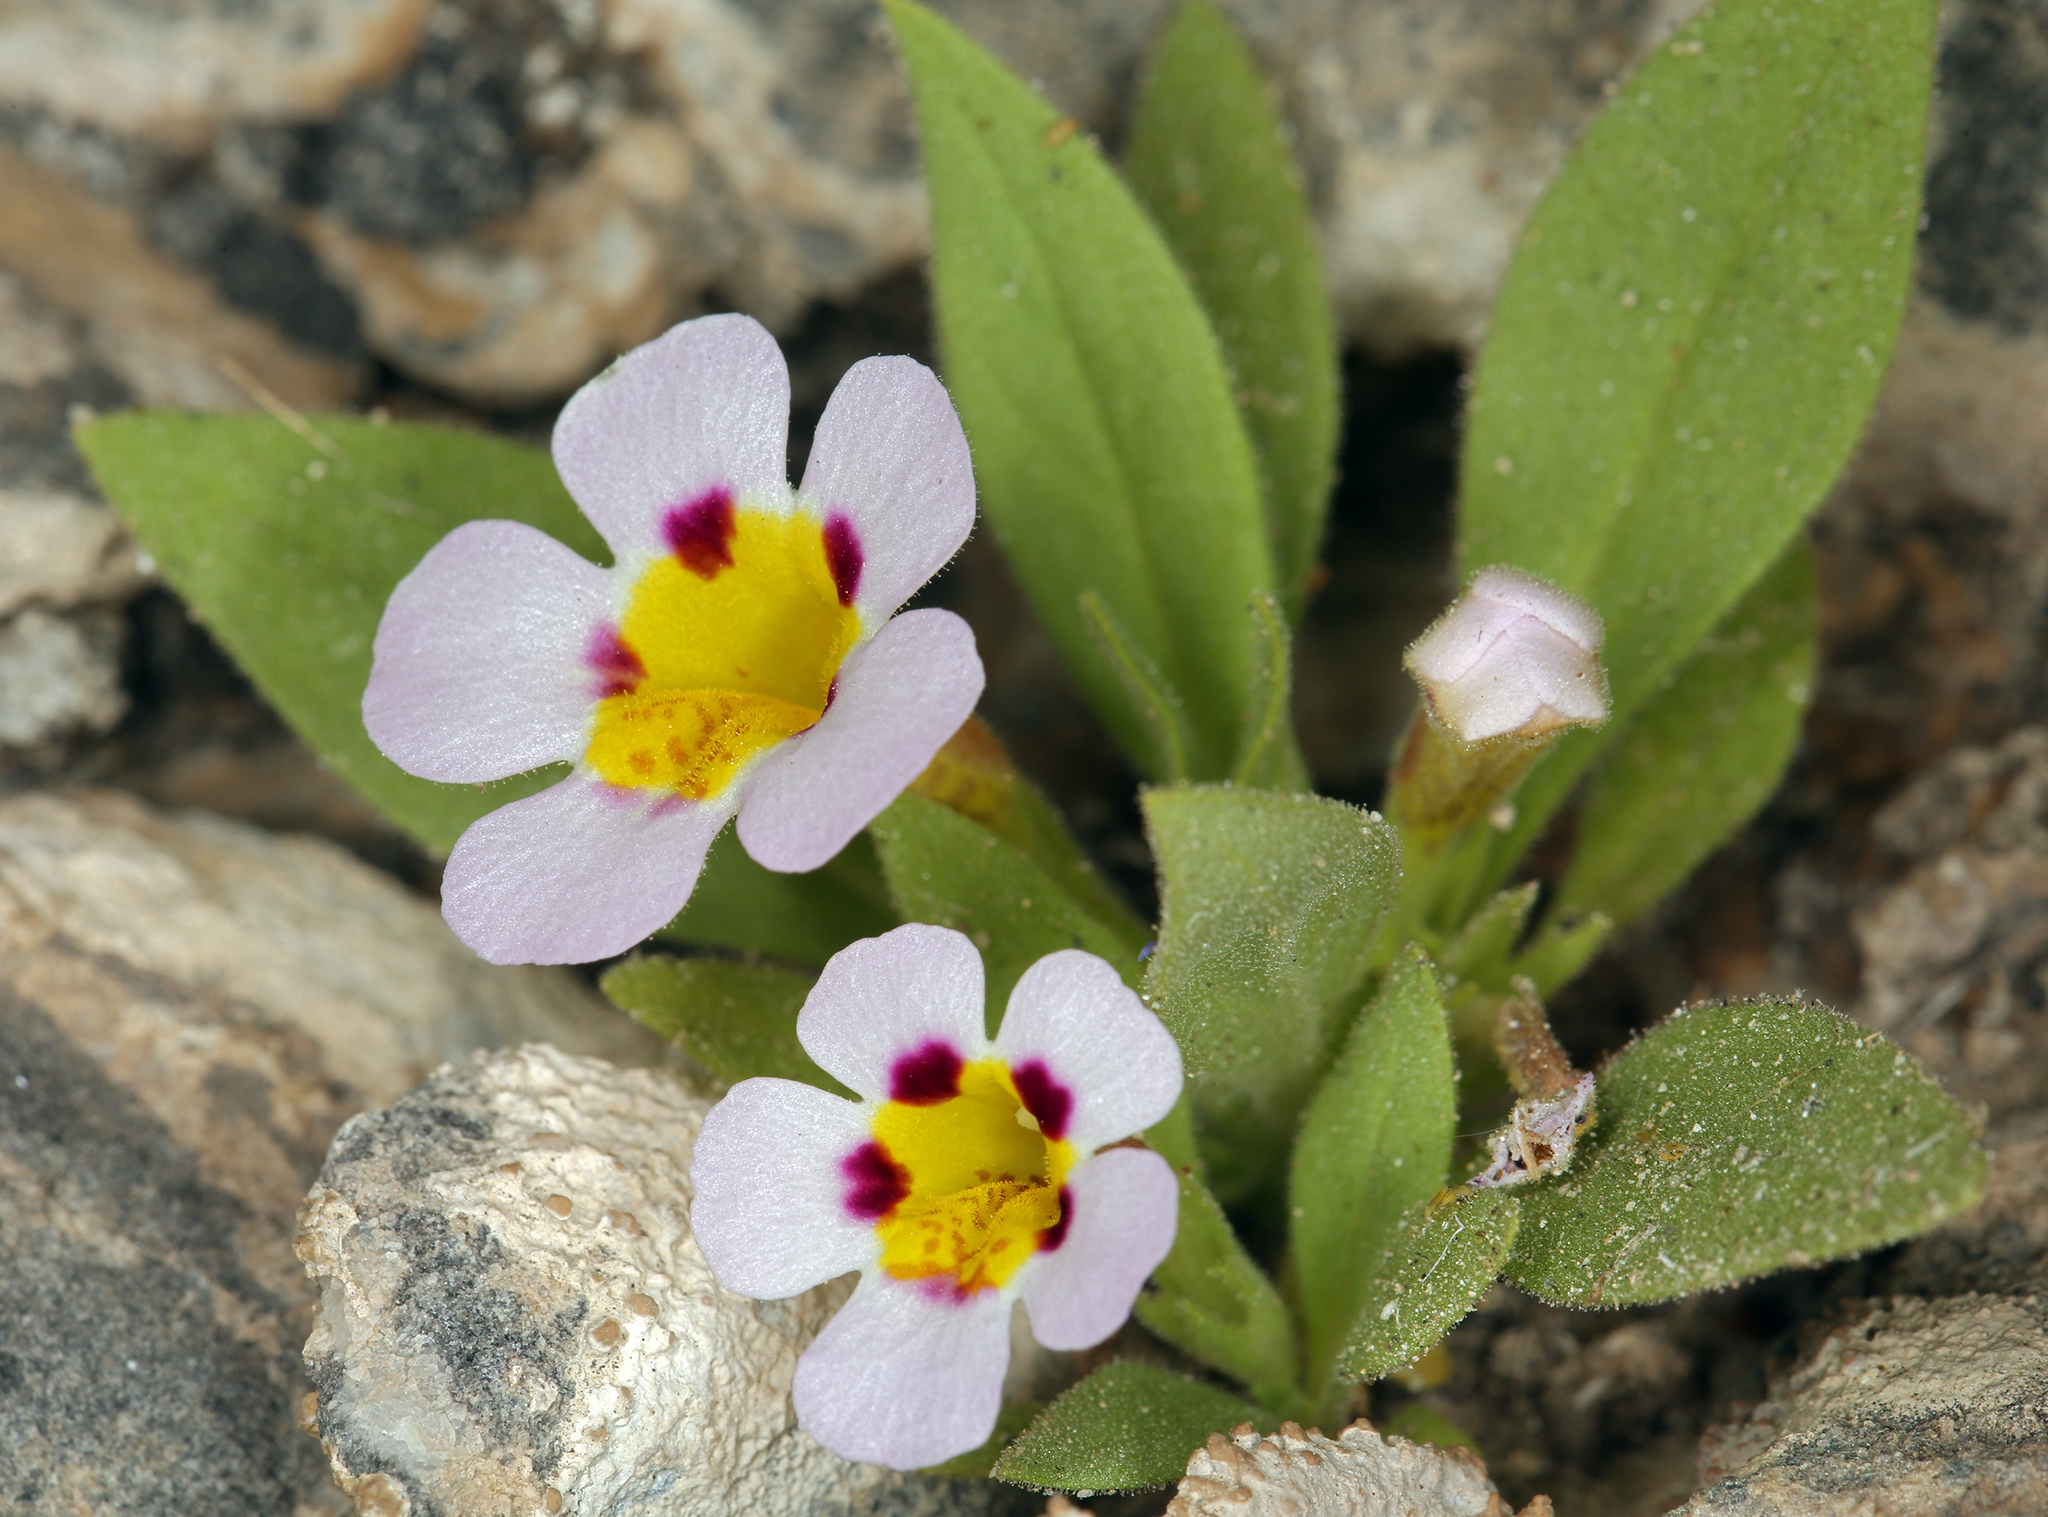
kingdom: Plantae
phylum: Tracheophyta
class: Magnoliopsida
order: Lamiales
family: Phrymaceae
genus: Diplacus
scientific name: Diplacus rupicola
